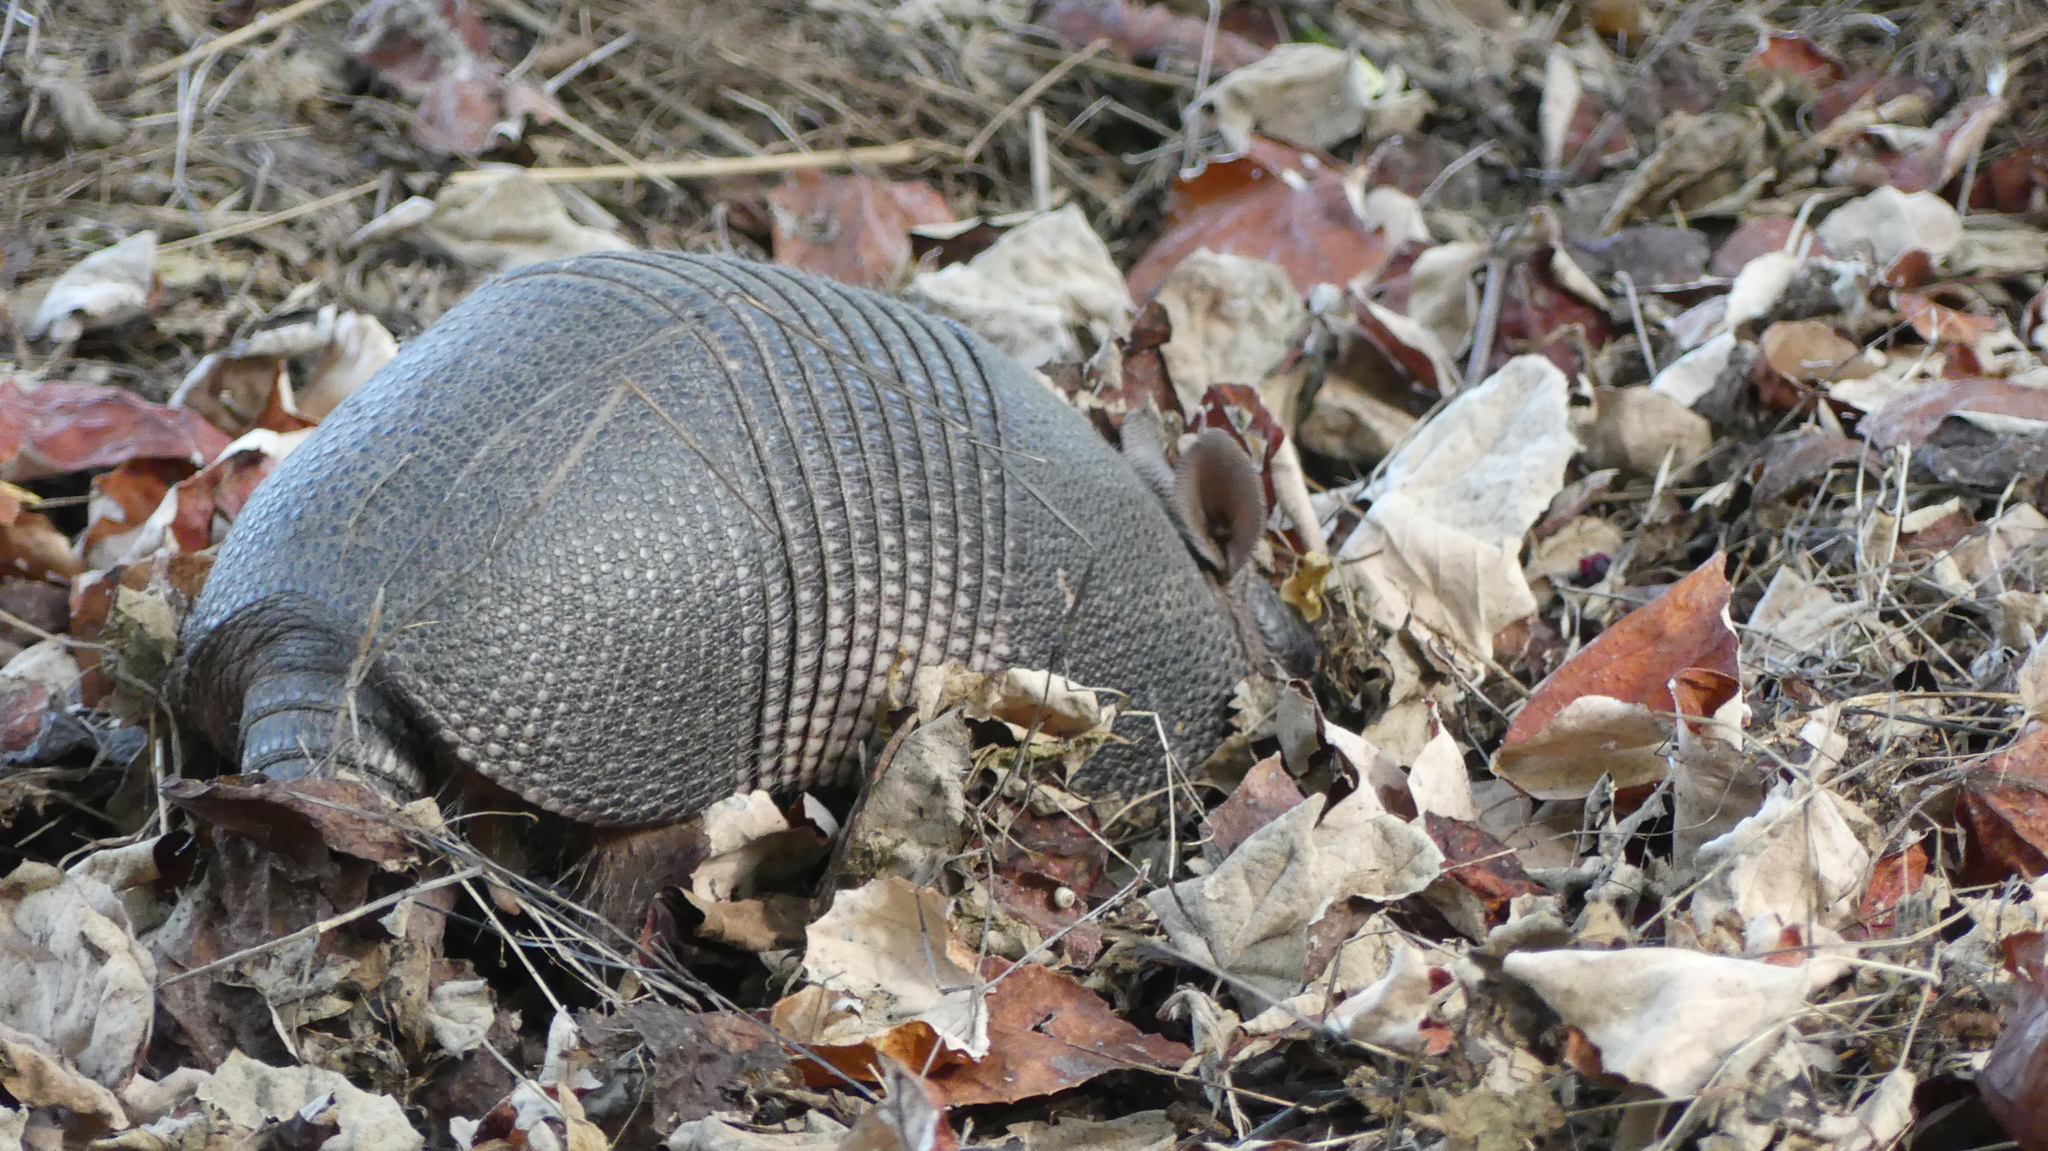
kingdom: Animalia
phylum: Chordata
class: Mammalia
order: Cingulata
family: Dasypodidae
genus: Dasypus
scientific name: Dasypus novemcinctus
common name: Nine-banded armadillo
